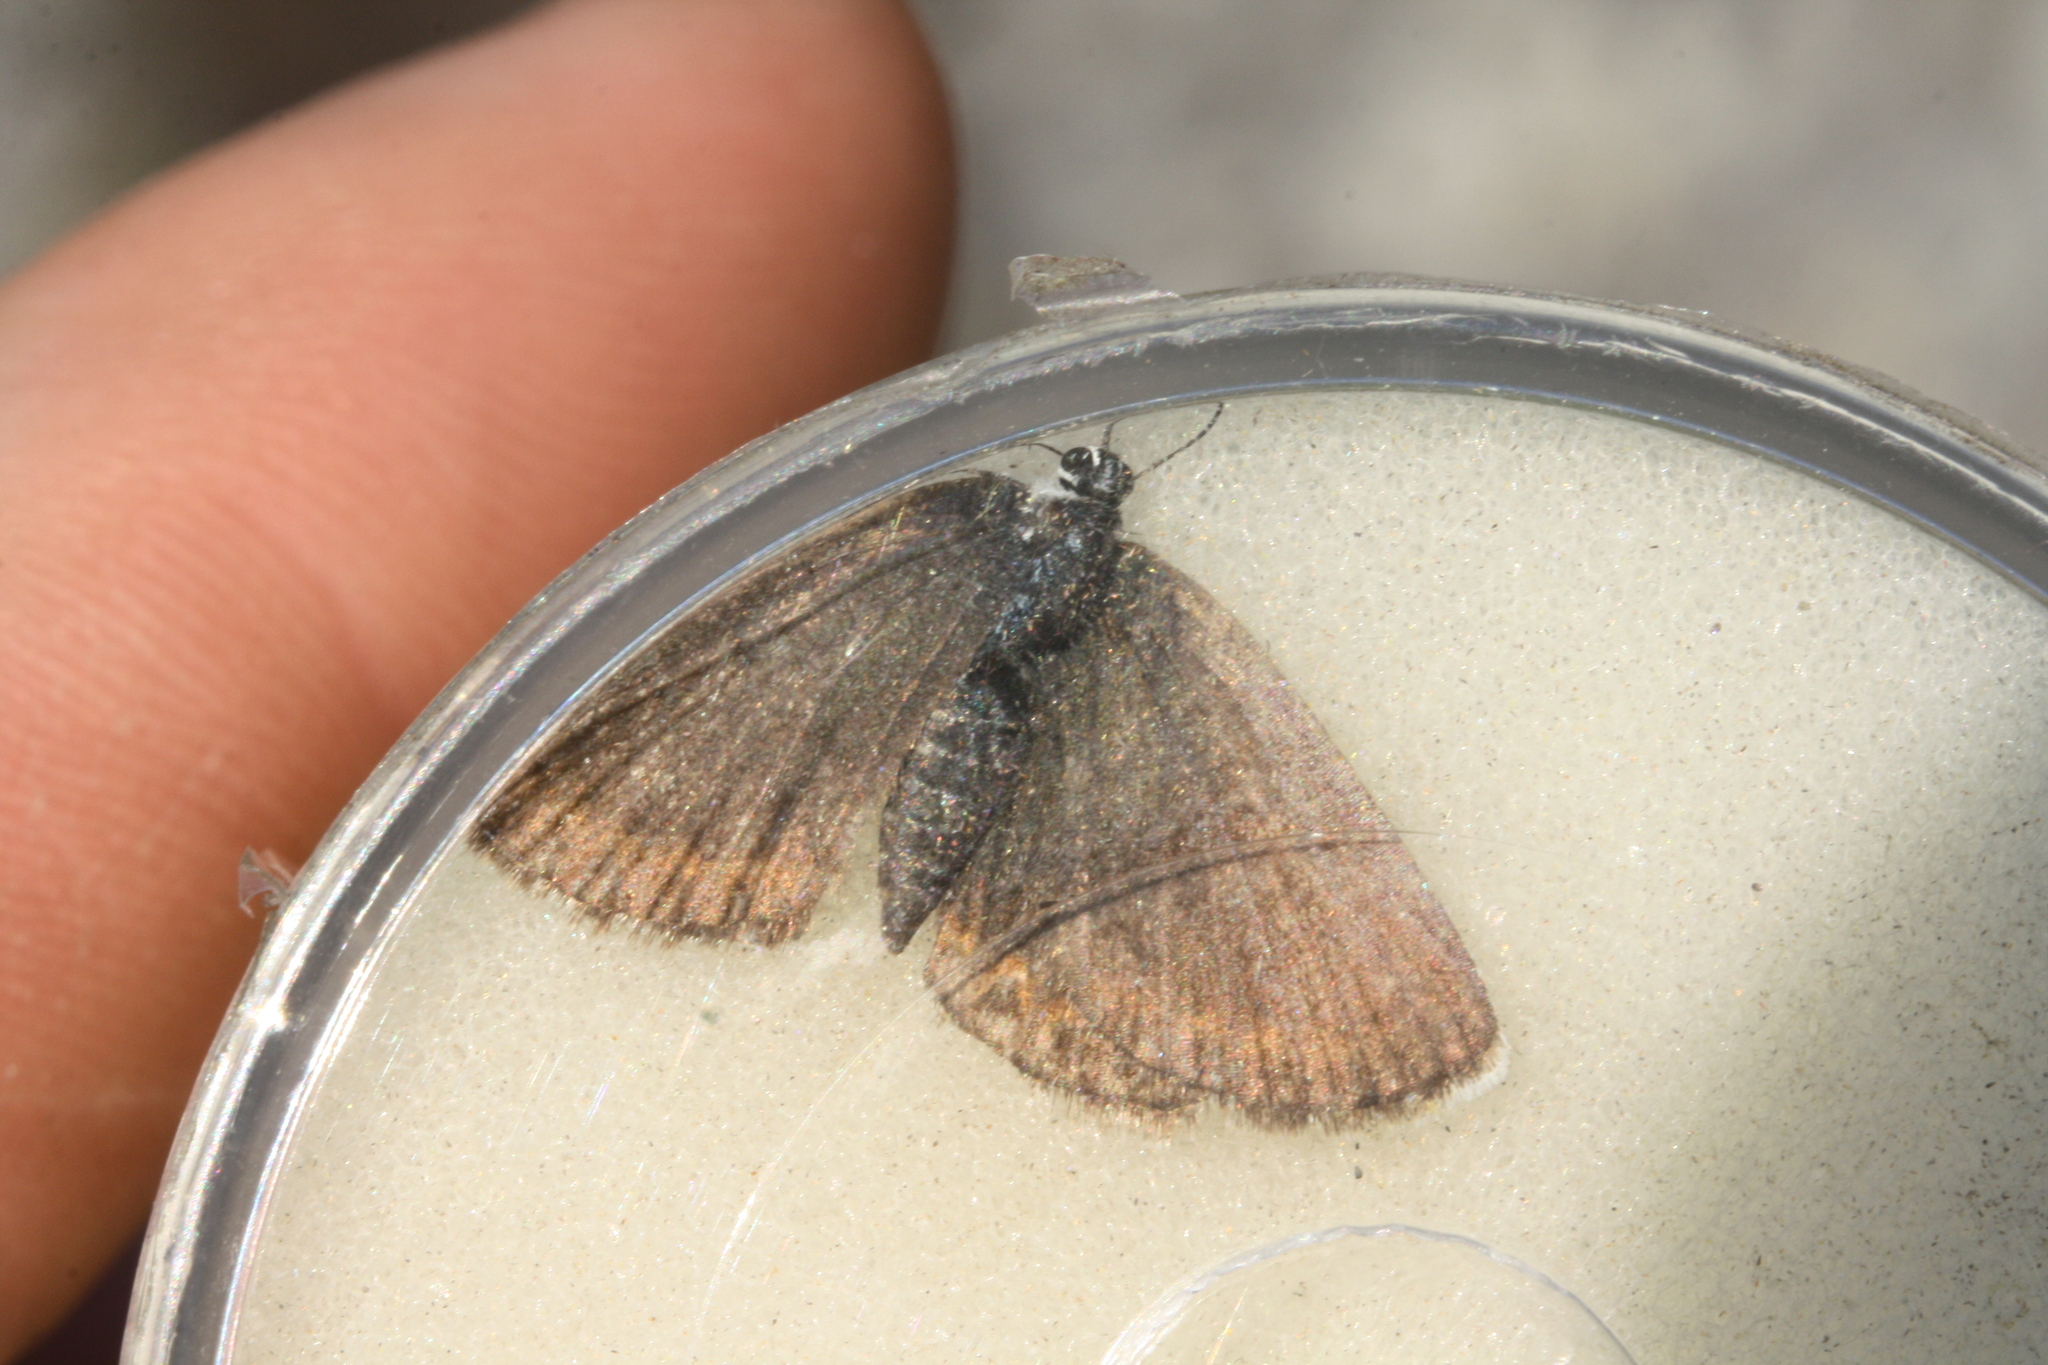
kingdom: Animalia
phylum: Arthropoda
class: Insecta
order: Lepidoptera
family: Lycaenidae
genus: Plebejus
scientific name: Plebejus argus
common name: Silver-studded blue
